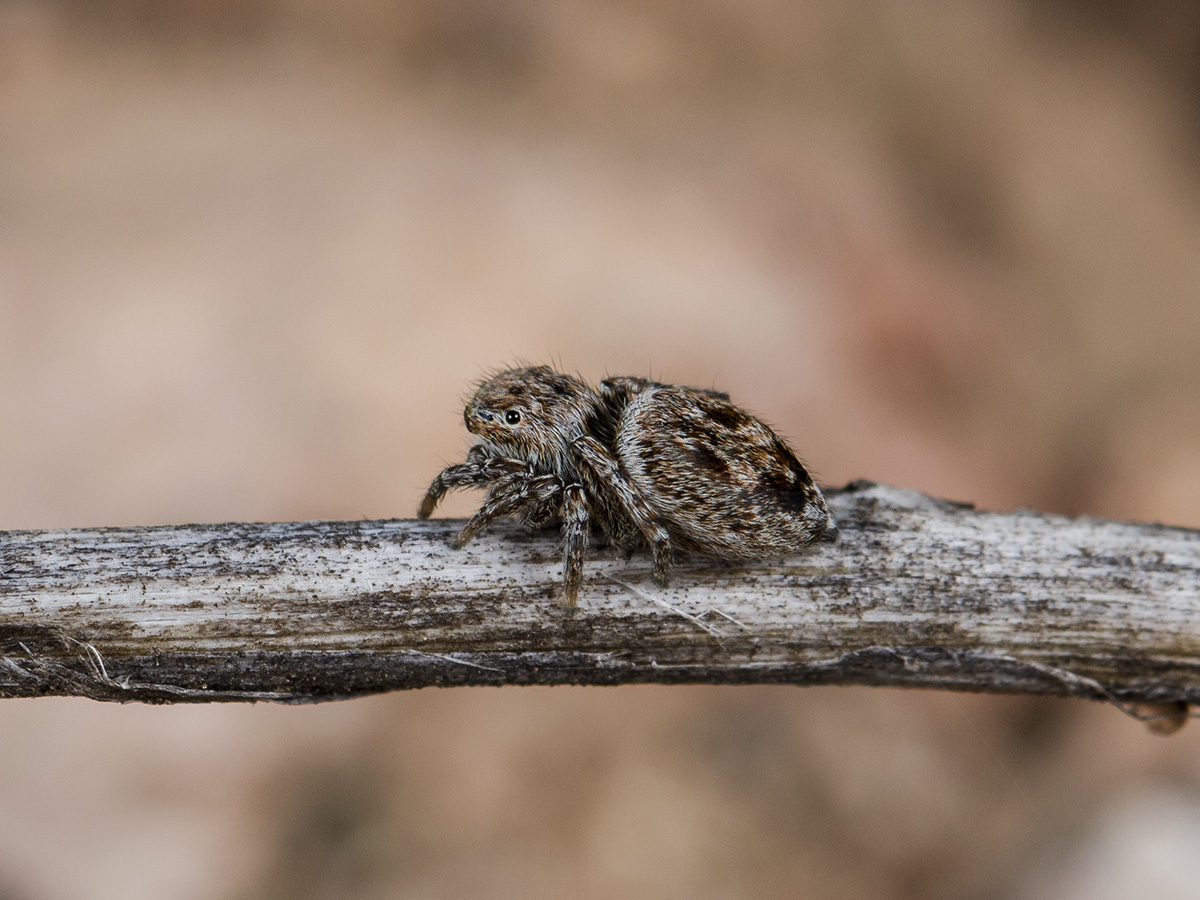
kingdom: Animalia
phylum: Arthropoda
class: Arachnida
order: Araneae
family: Salticidae
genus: Attulus
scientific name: Attulus mirandus
